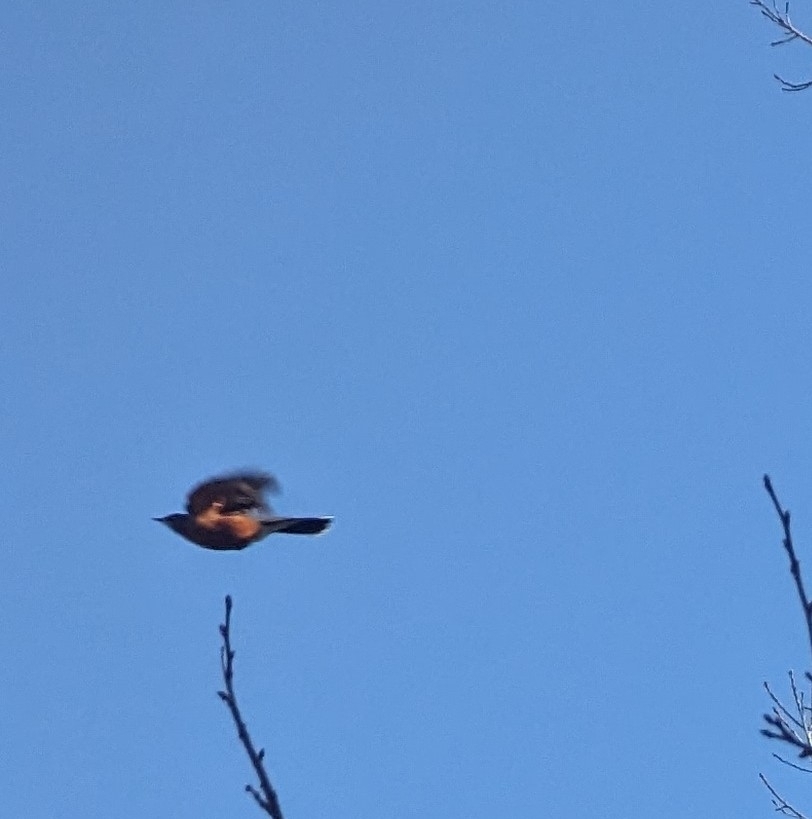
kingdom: Animalia
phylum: Chordata
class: Aves
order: Passeriformes
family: Turdidae
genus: Turdus
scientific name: Turdus migratorius
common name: American robin
